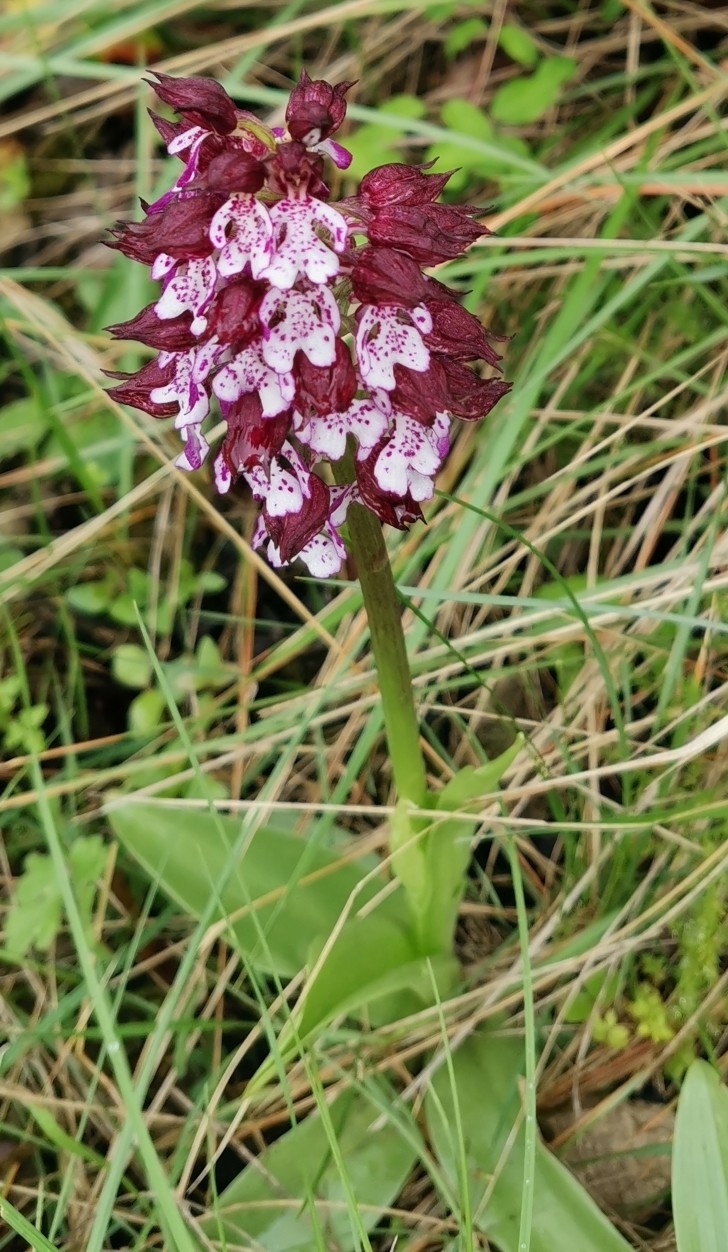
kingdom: Plantae
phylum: Tracheophyta
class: Liliopsida
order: Asparagales
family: Orchidaceae
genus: Orchis
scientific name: Orchis purpurea
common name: Lady orchid
